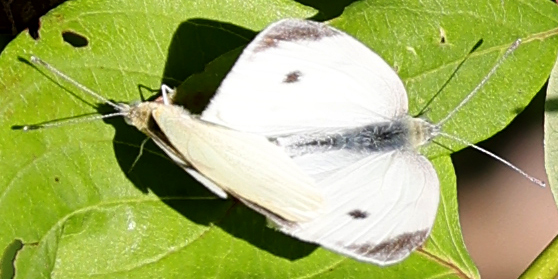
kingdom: Animalia
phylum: Arthropoda
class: Insecta
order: Lepidoptera
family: Pieridae
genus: Pieris
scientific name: Pieris rapae
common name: Small white
